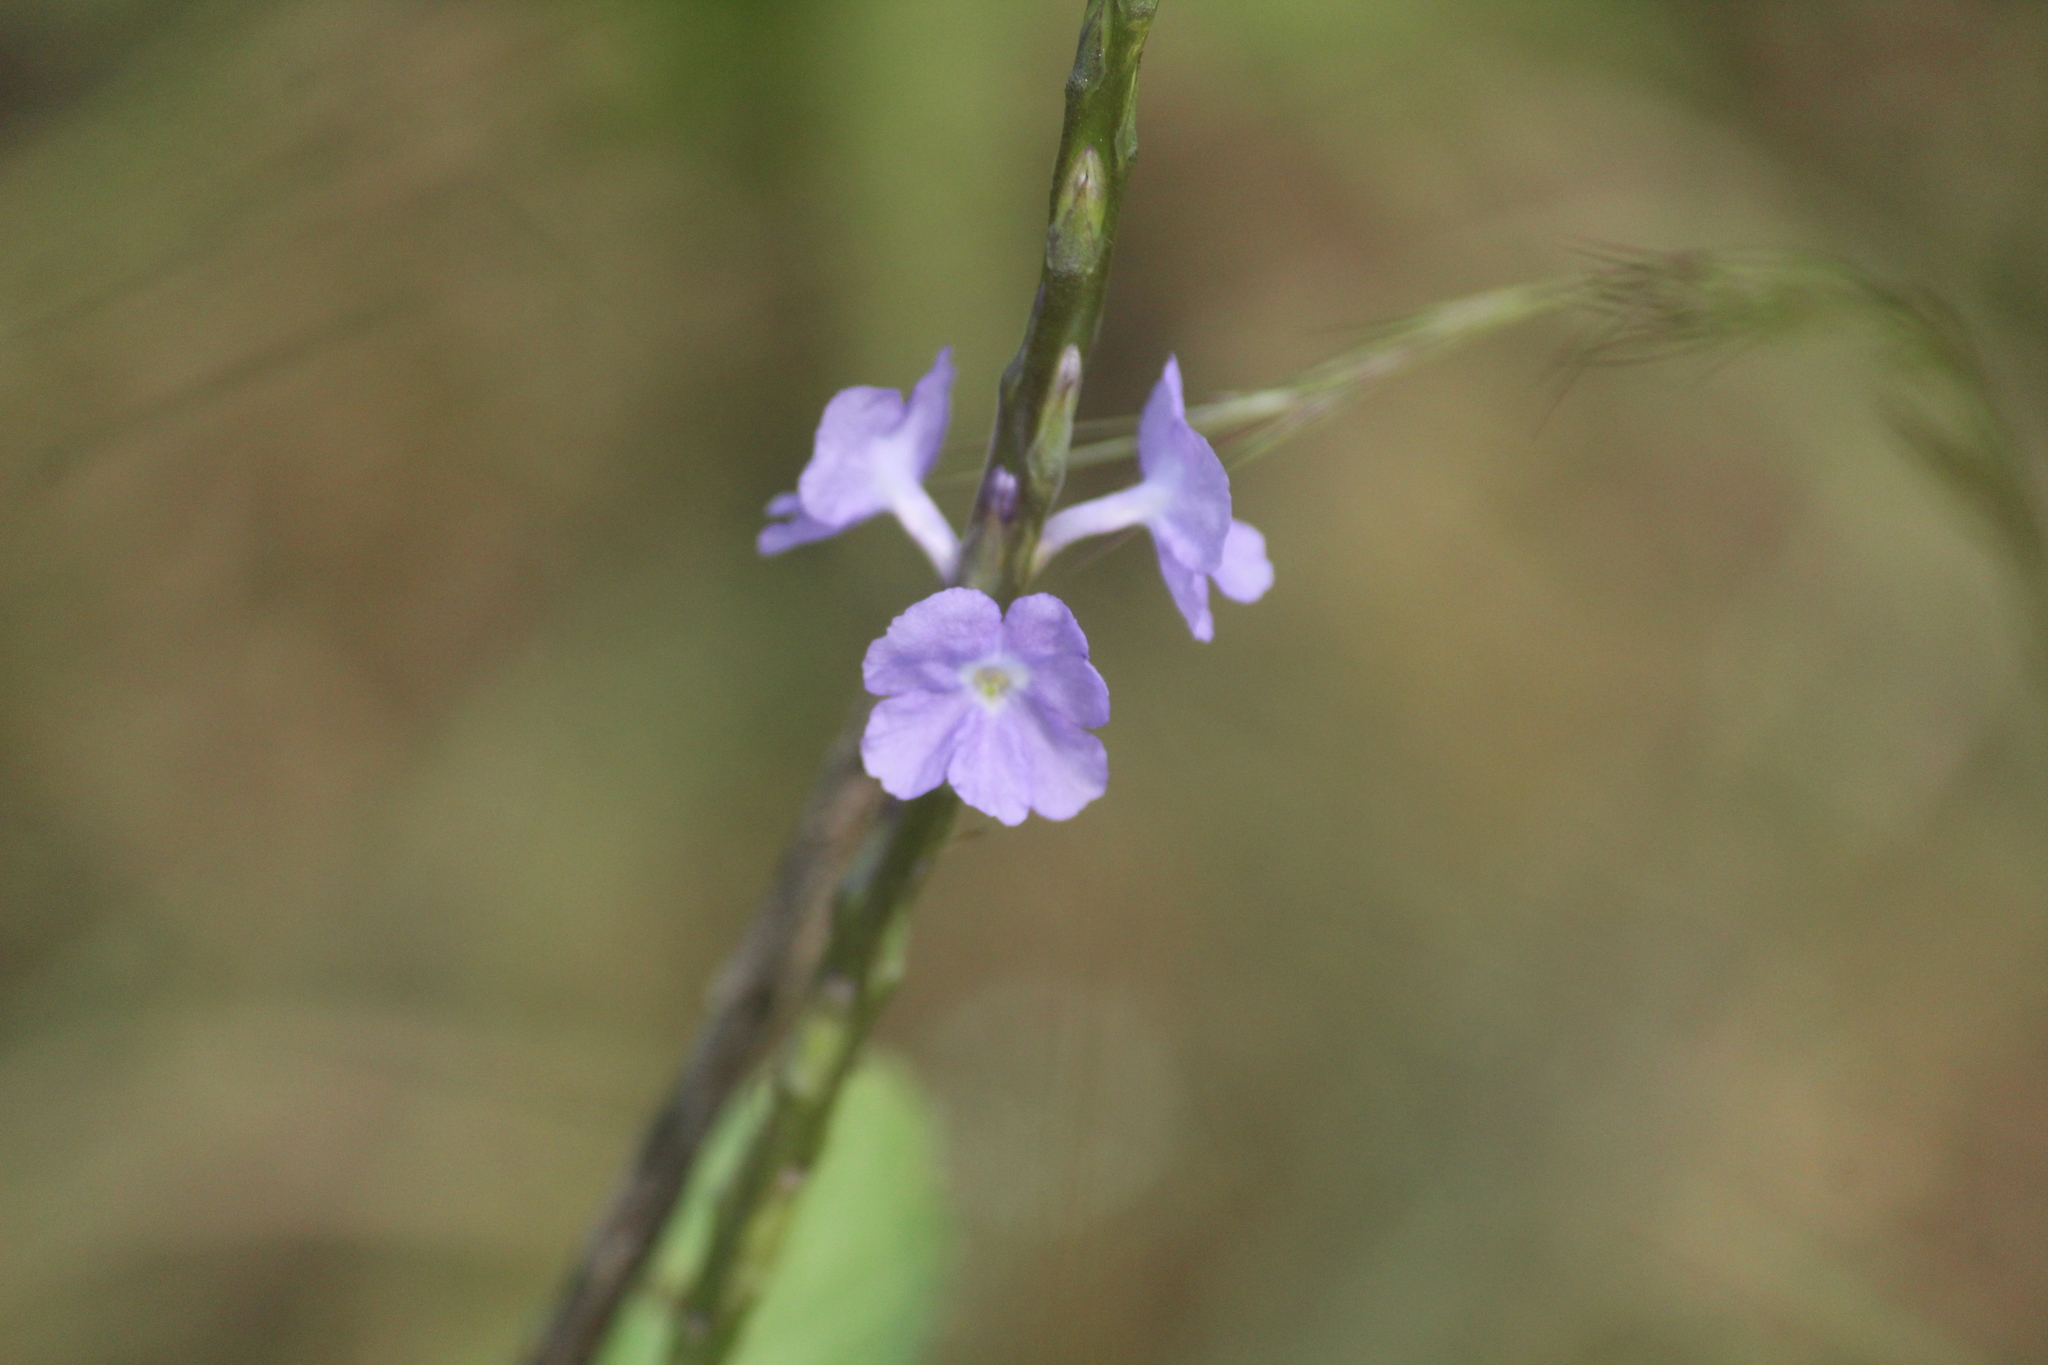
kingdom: Plantae
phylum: Tracheophyta
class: Magnoliopsida
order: Lamiales
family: Verbenaceae
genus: Stachytarpheta
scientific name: Stachytarpheta jamaicensis
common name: Light-blue snakeweed
